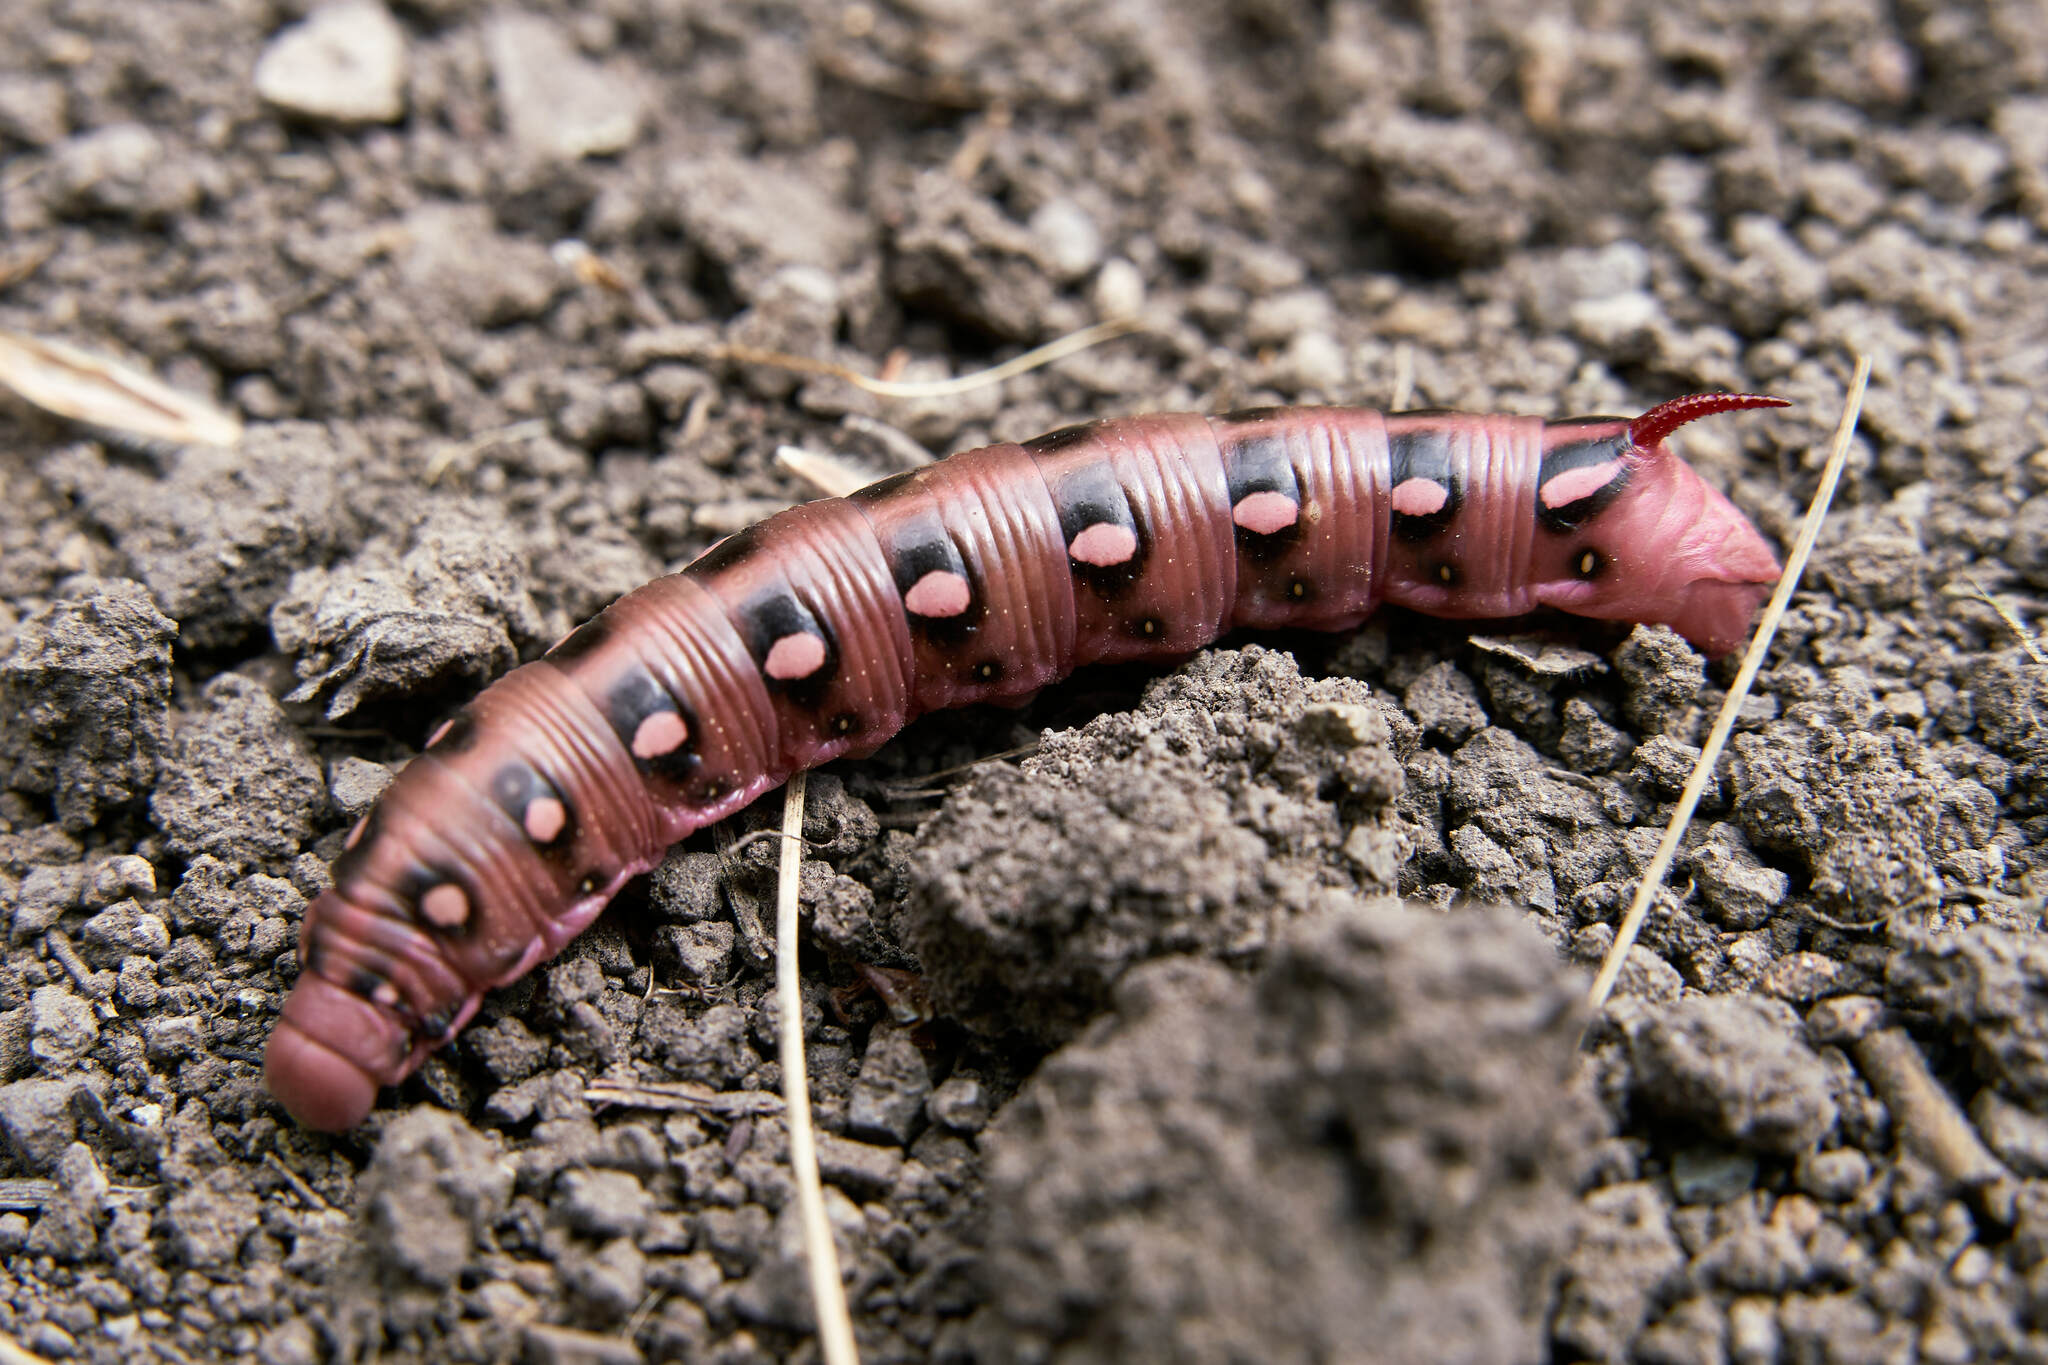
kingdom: Animalia
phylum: Arthropoda
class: Insecta
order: Lepidoptera
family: Sphingidae
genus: Hyles
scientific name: Hyles gallii
